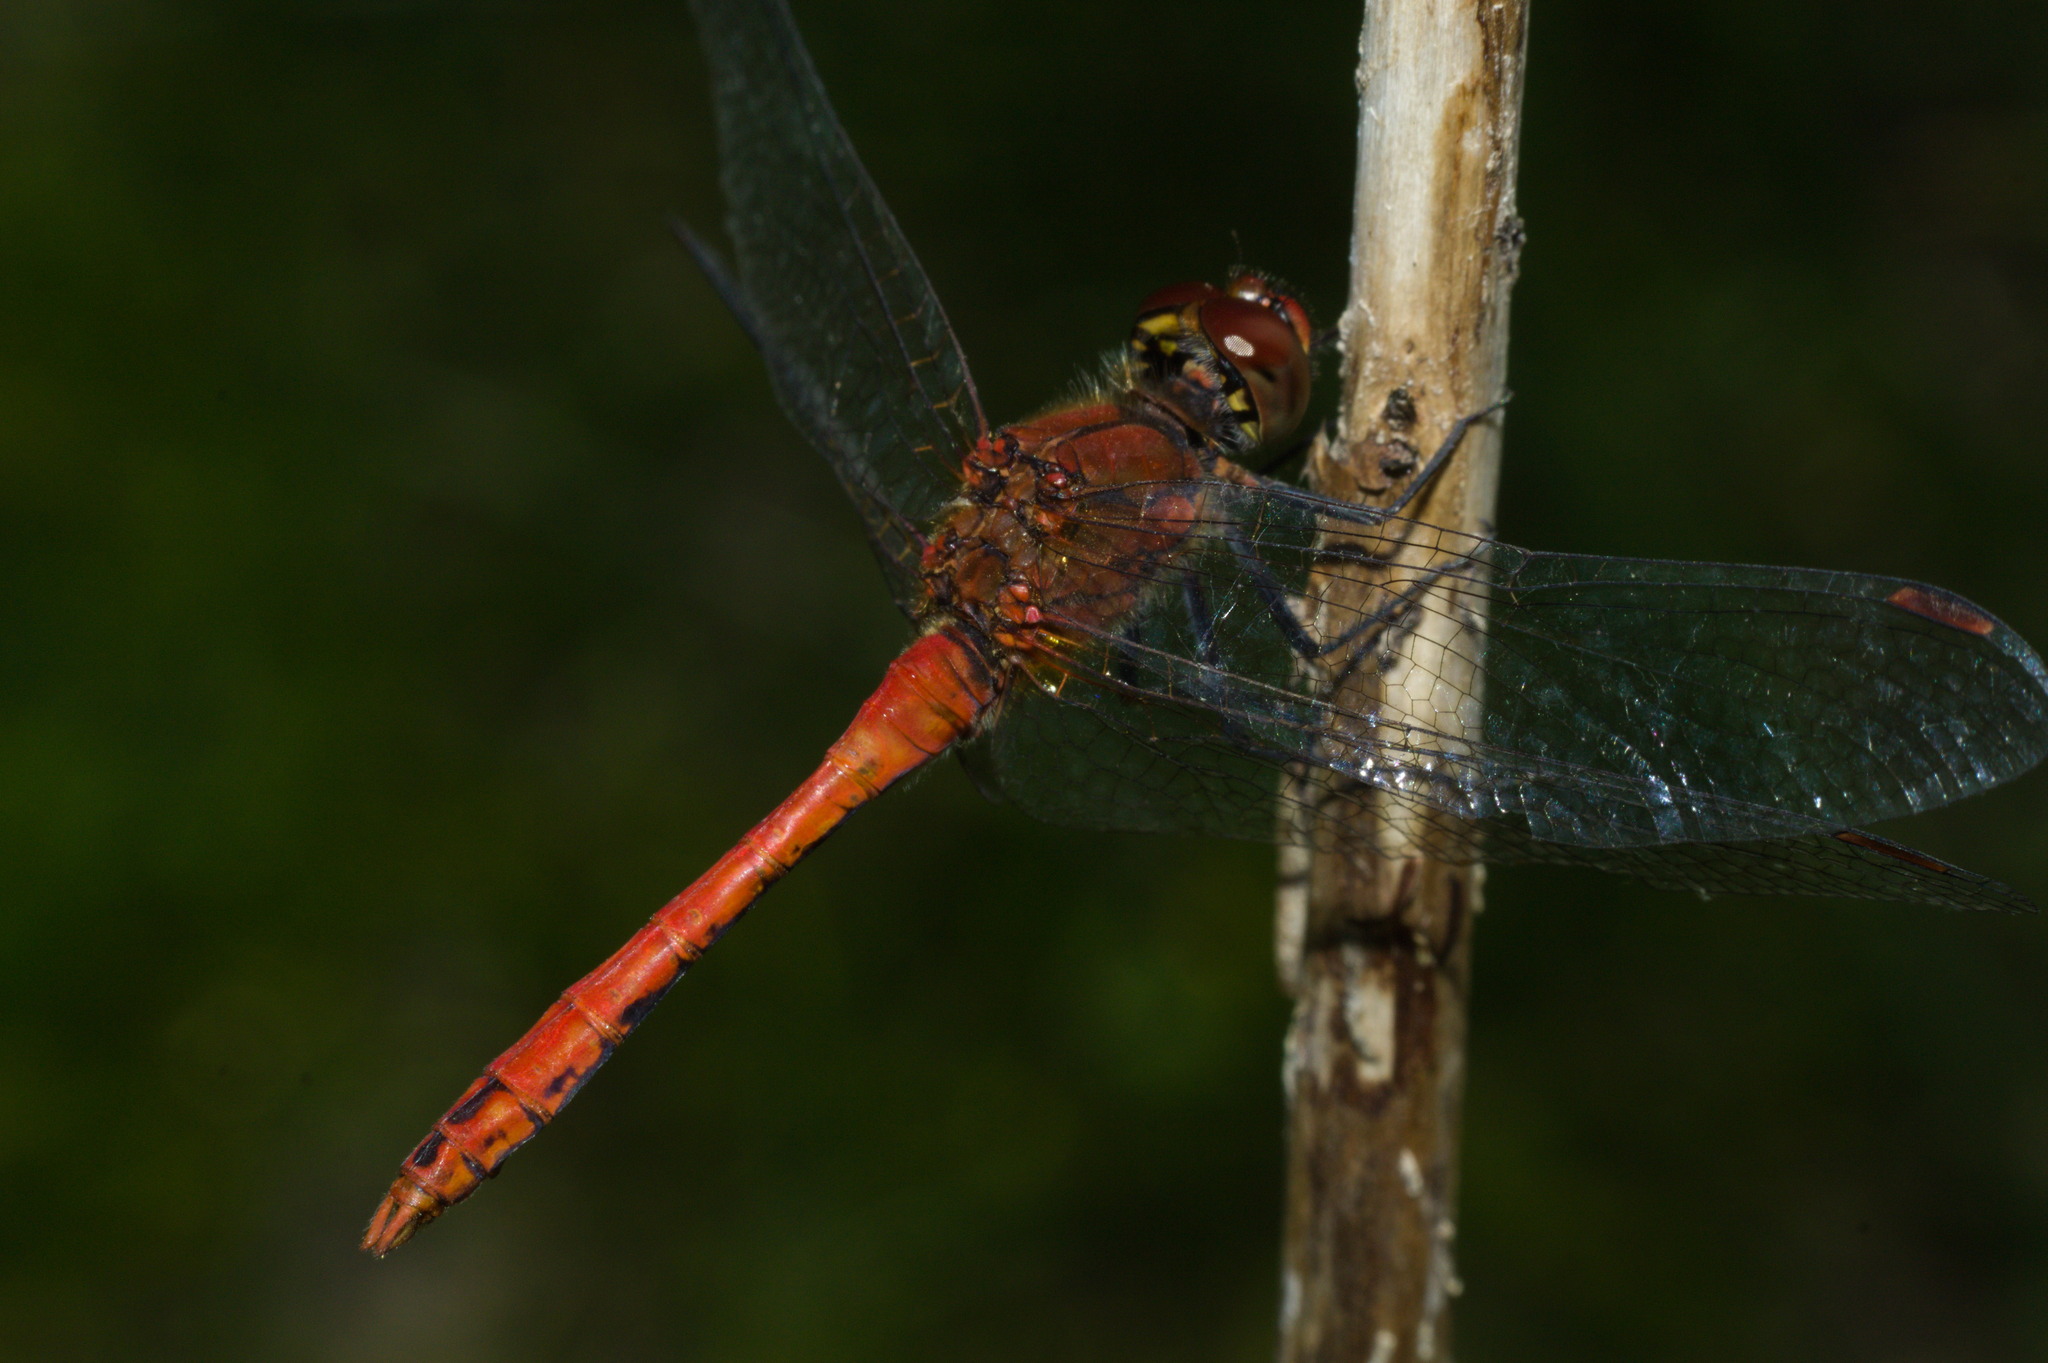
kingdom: Animalia
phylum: Arthropoda
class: Insecta
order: Odonata
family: Libellulidae
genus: Sympetrum
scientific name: Sympetrum sanguineum
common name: Ruddy darter
